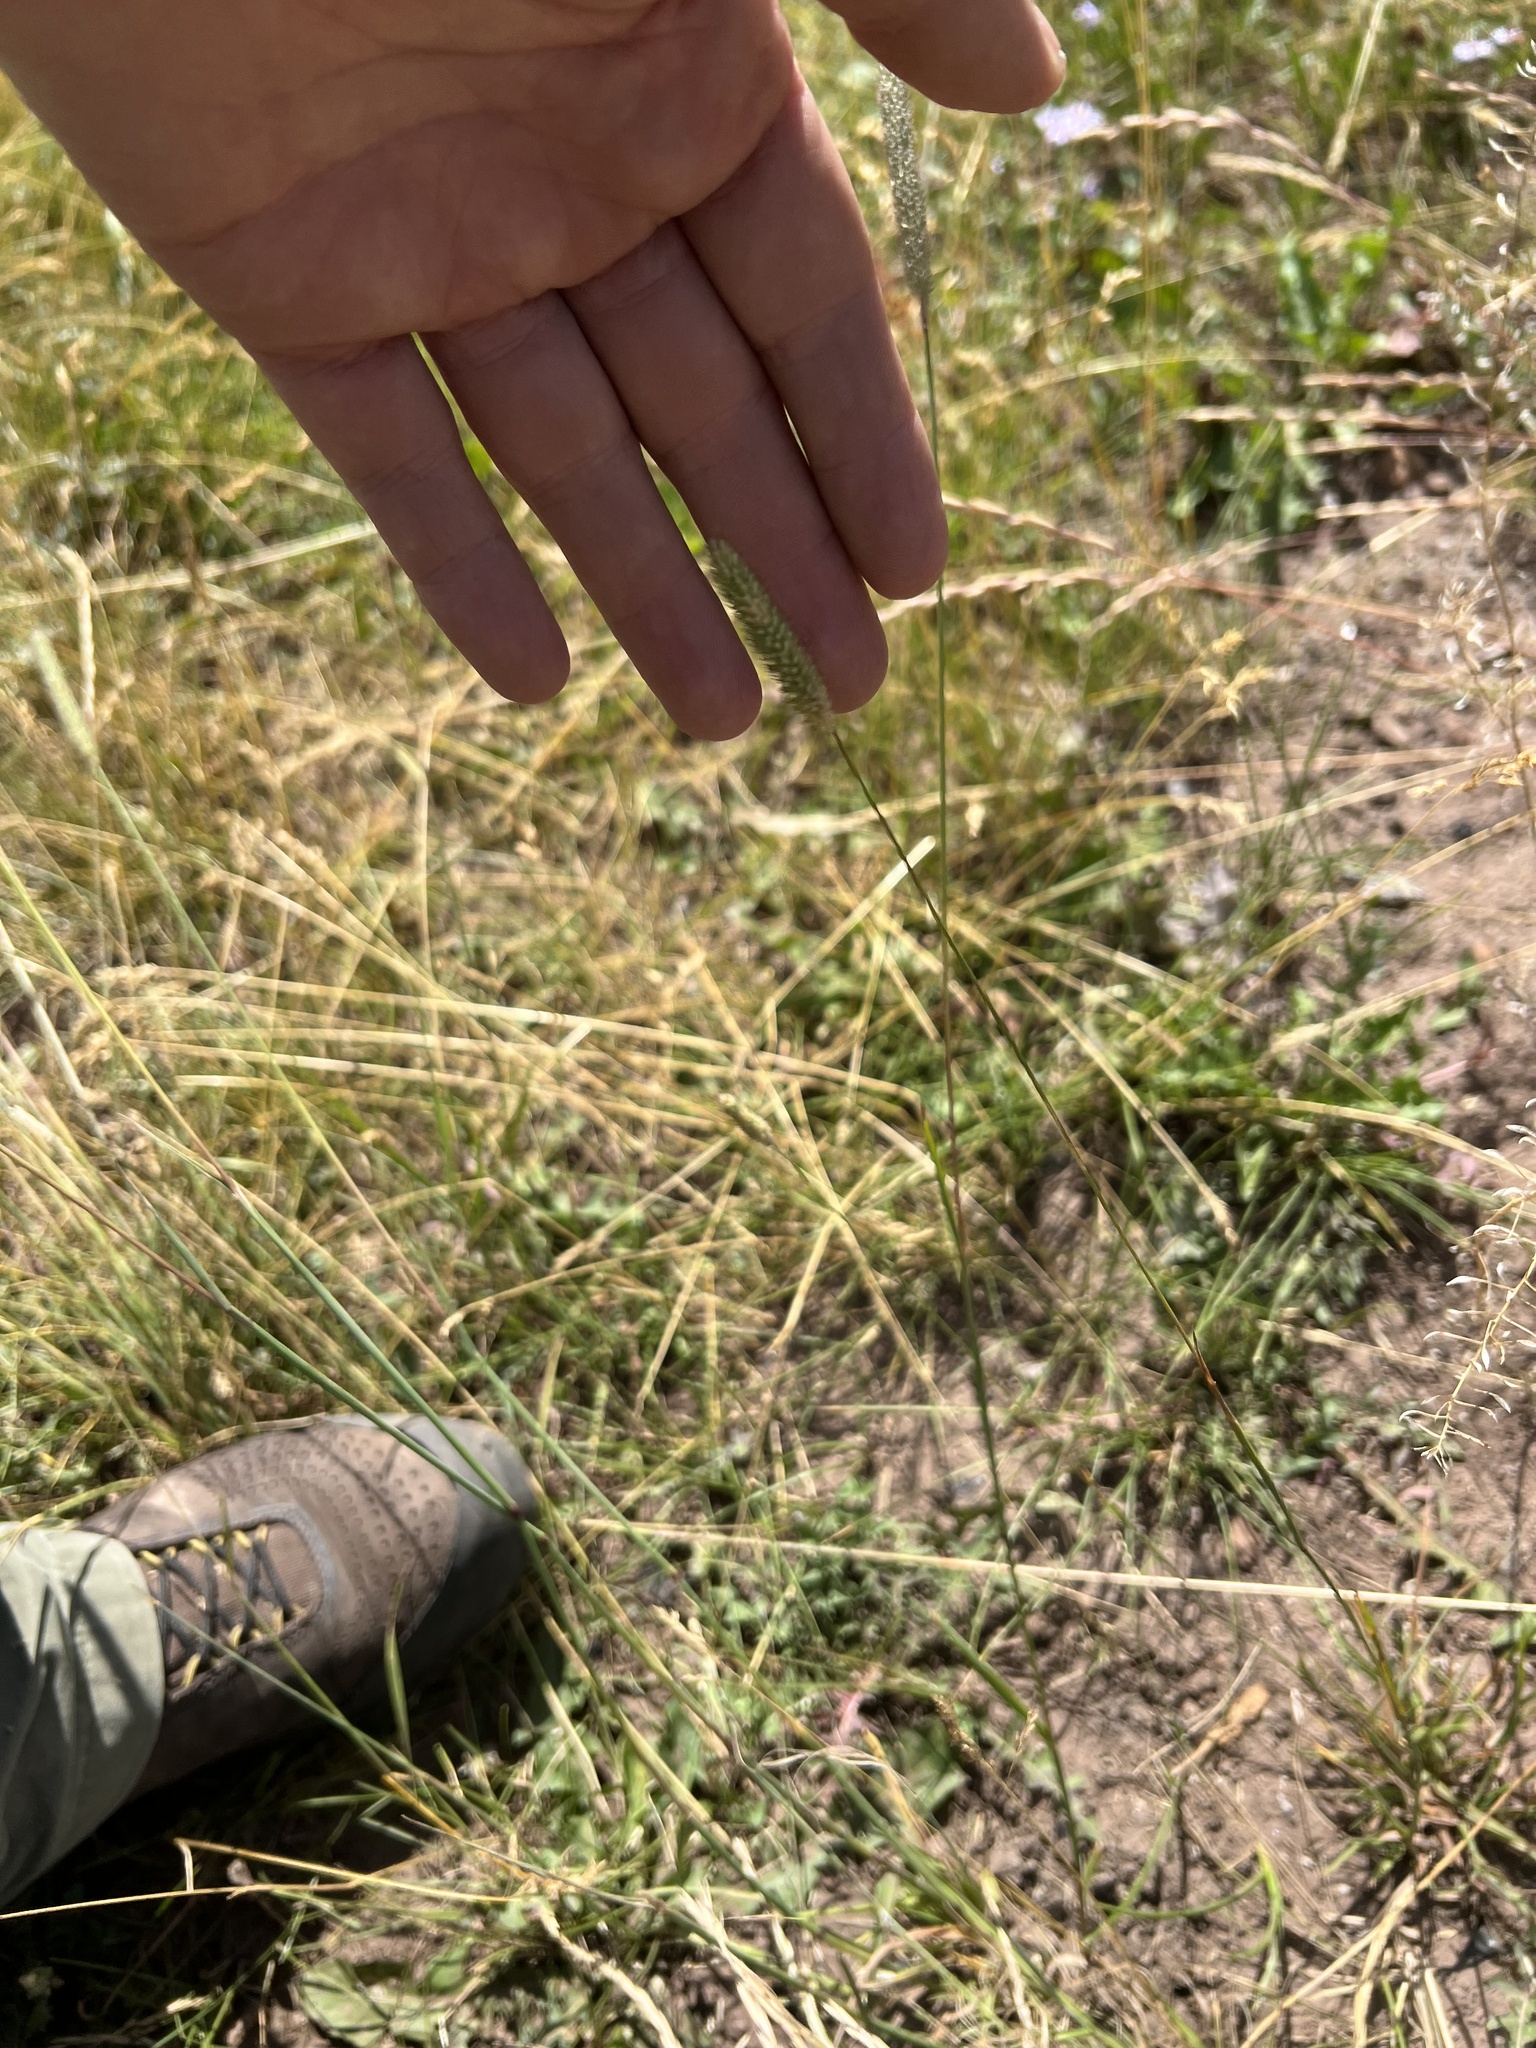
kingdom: Plantae
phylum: Tracheophyta
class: Liliopsida
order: Poales
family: Poaceae
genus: Phleum
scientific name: Phleum pratense
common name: Timothy grass
